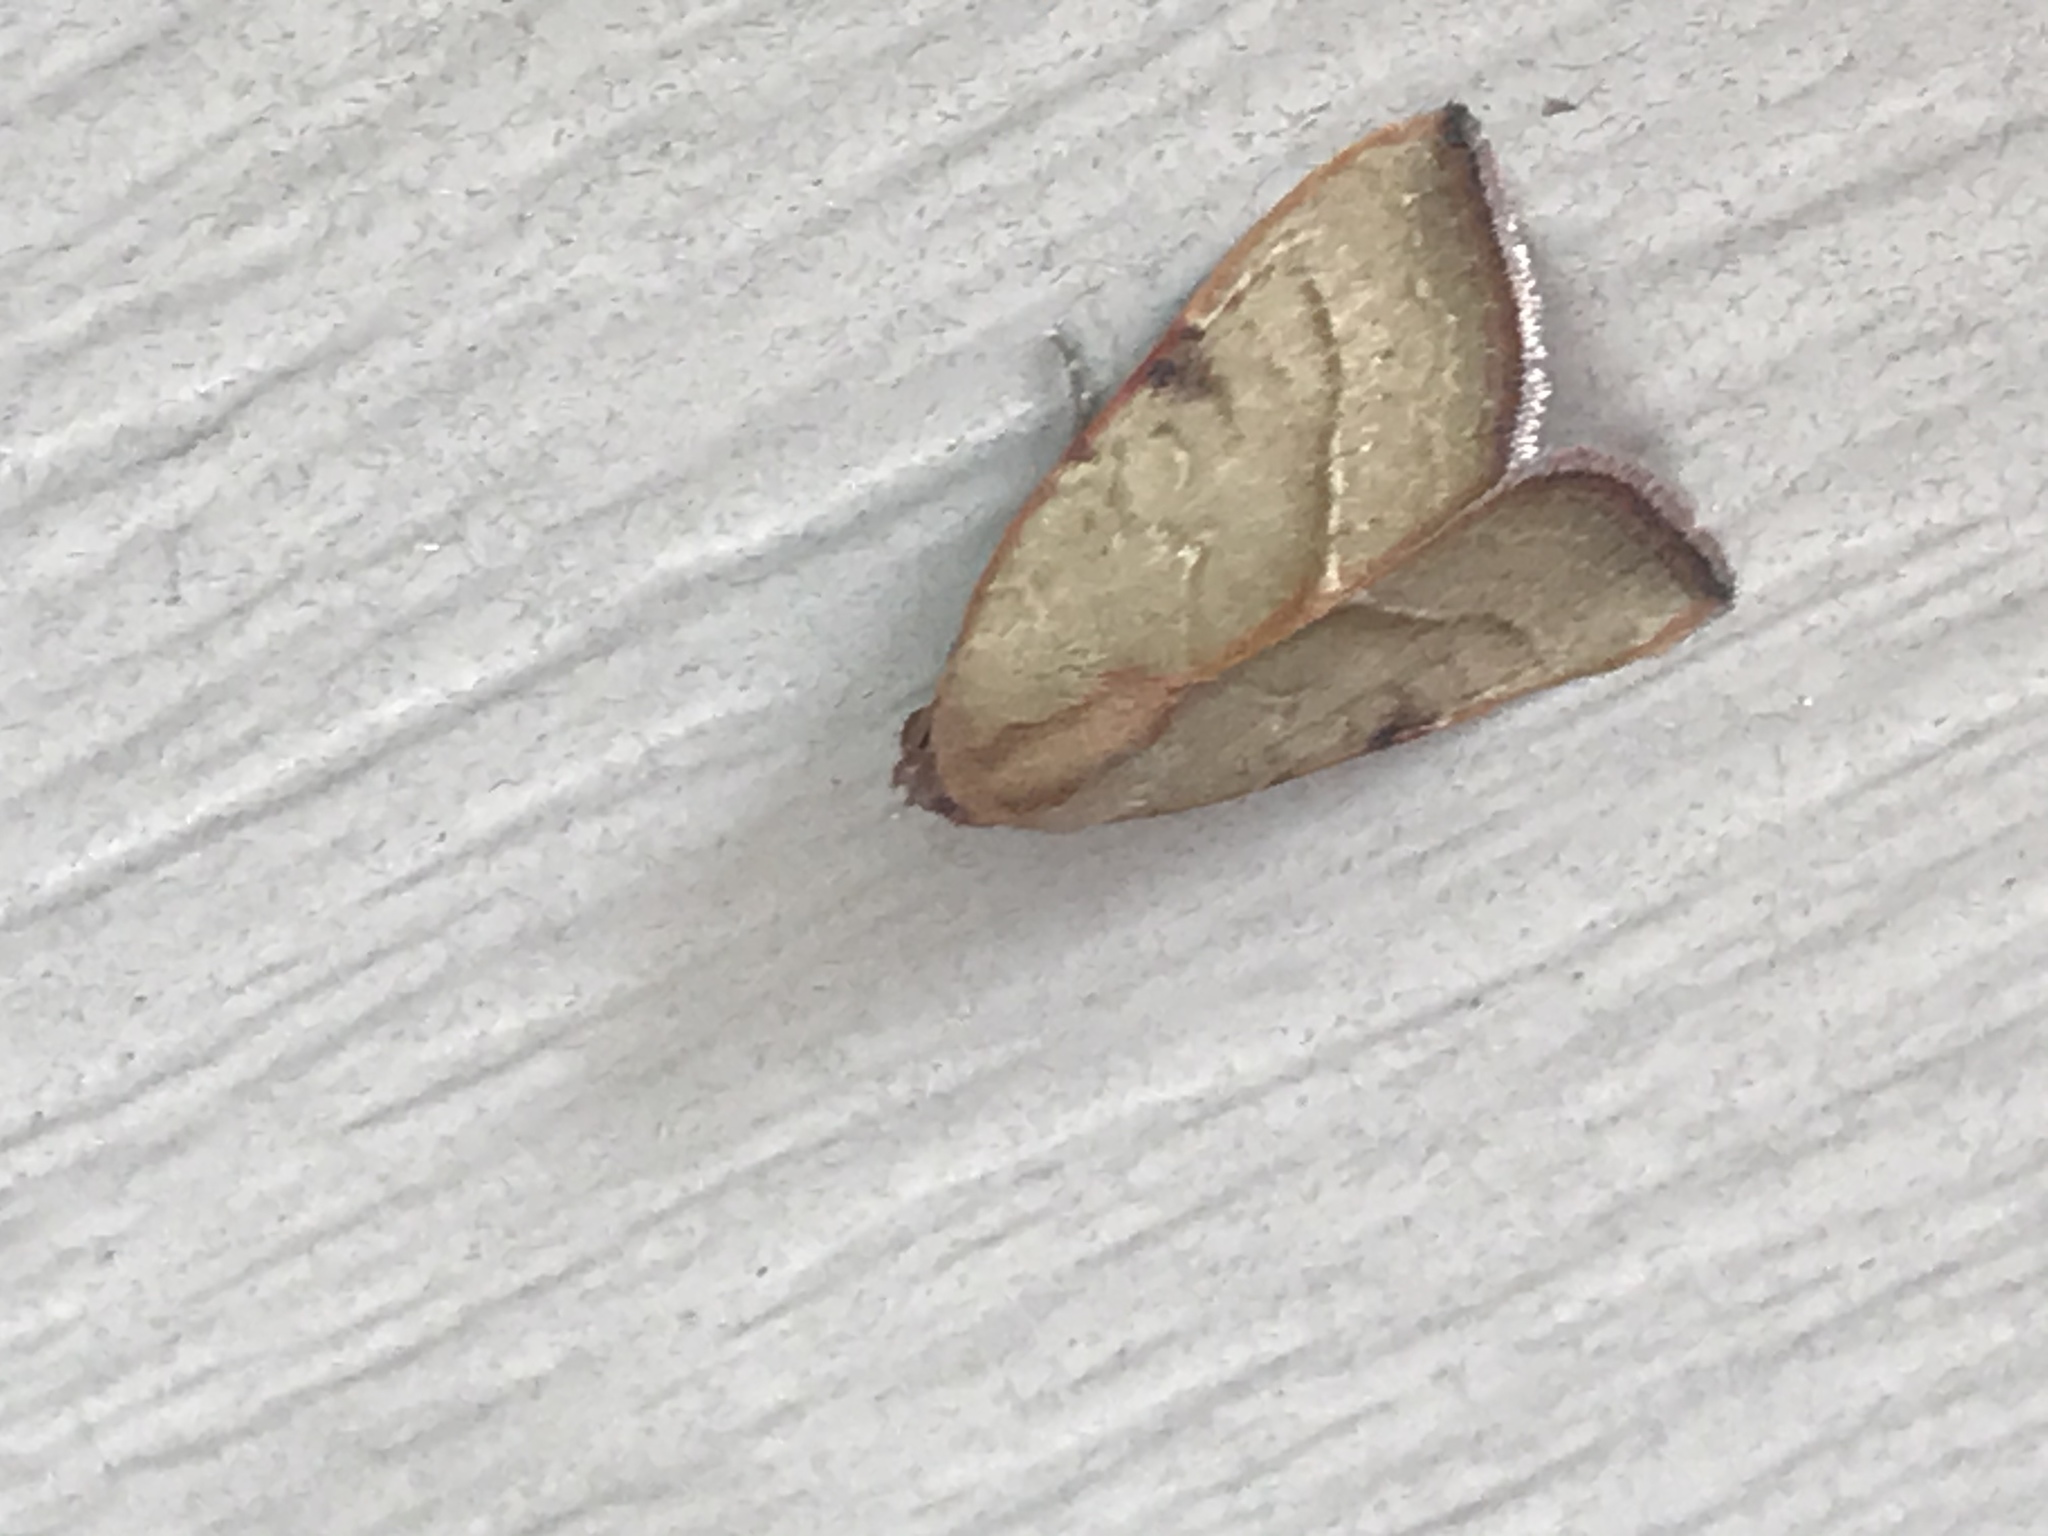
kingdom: Animalia
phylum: Arthropoda
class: Insecta
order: Lepidoptera
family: Noctuidae
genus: Galgula
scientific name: Galgula partita
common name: Wedgeling
